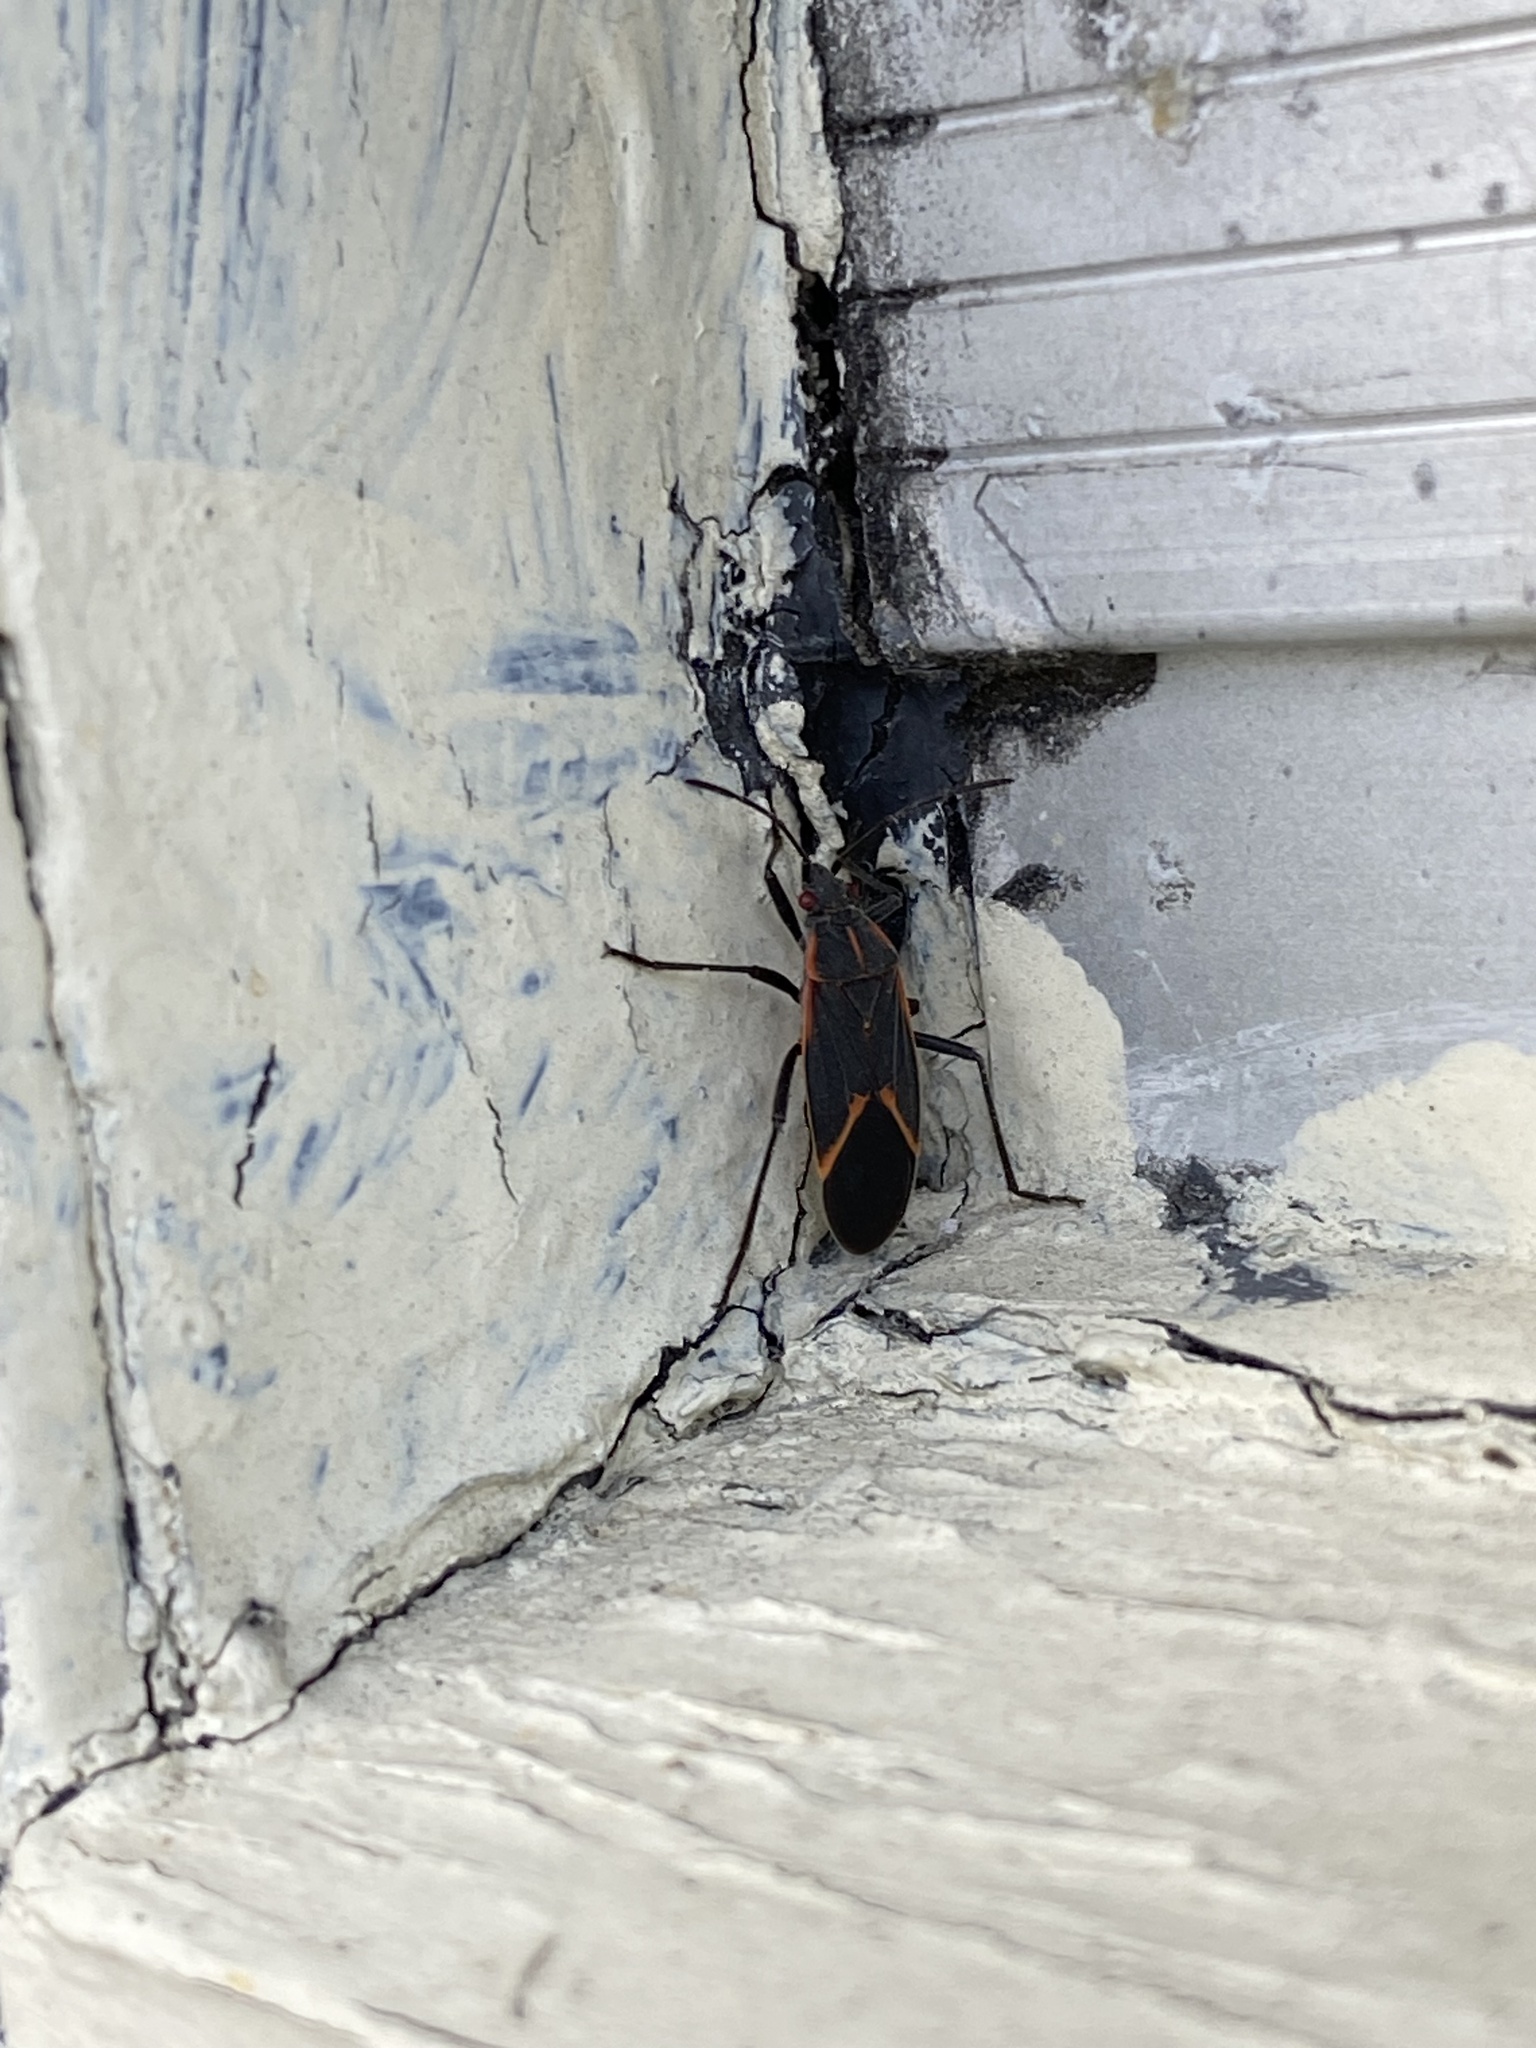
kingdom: Animalia
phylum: Arthropoda
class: Insecta
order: Hemiptera
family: Rhopalidae
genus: Boisea
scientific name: Boisea trivittata
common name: Boxelder bug
